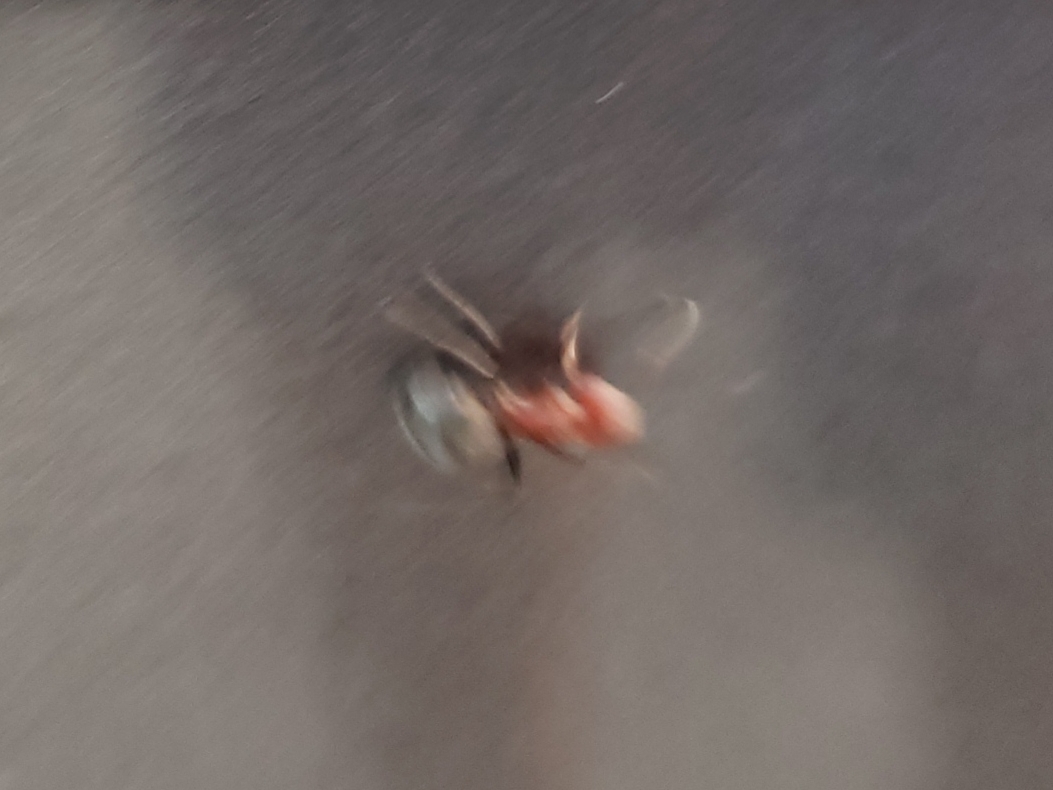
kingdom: Animalia
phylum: Arthropoda
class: Insecta
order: Hymenoptera
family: Formicidae
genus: Camponotus
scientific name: Camponotus planatus
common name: Compact carpenter ant
